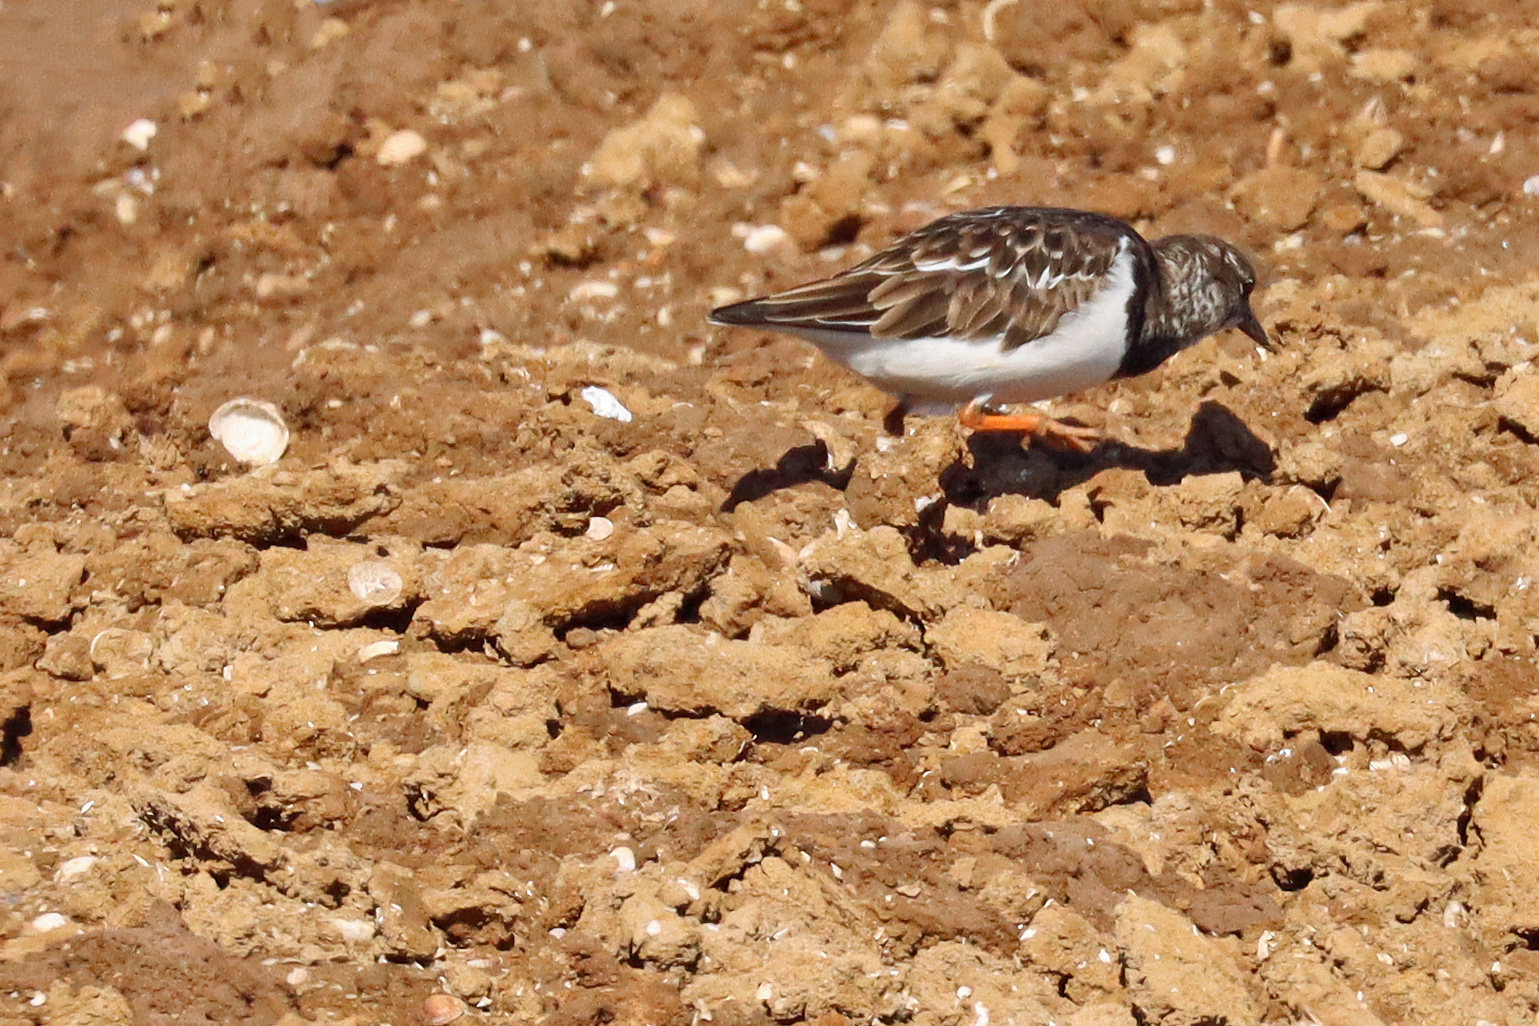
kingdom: Animalia
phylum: Chordata
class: Aves
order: Charadriiformes
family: Scolopacidae
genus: Arenaria
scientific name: Arenaria interpres
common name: Ruddy turnstone
